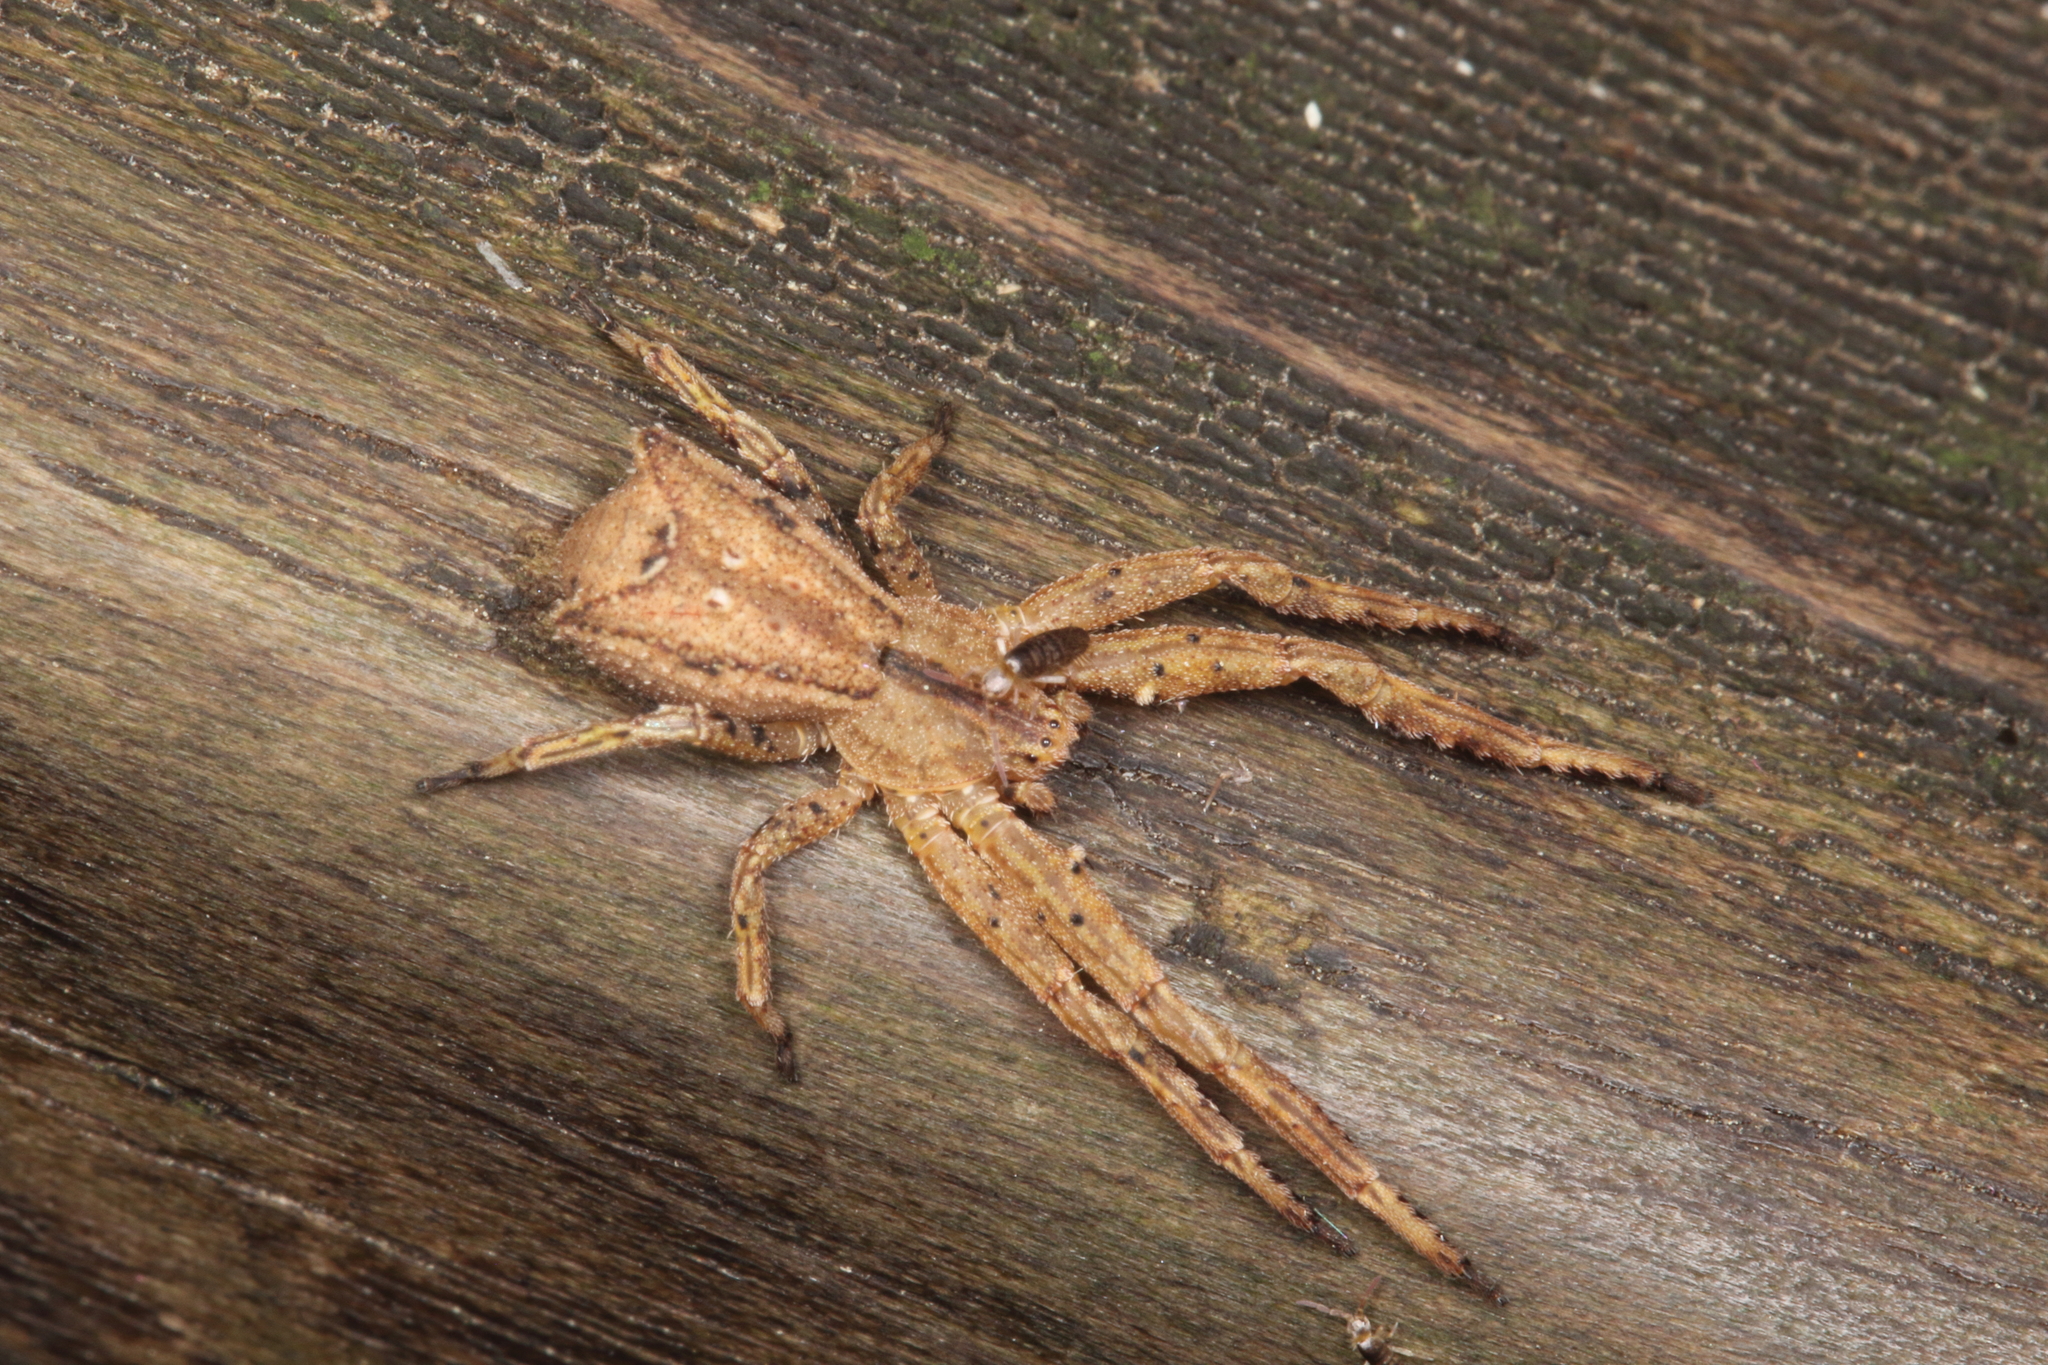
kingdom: Animalia
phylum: Arthropoda
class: Arachnida
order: Araneae
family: Thomisidae
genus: Sidymella
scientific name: Sidymella angulata
